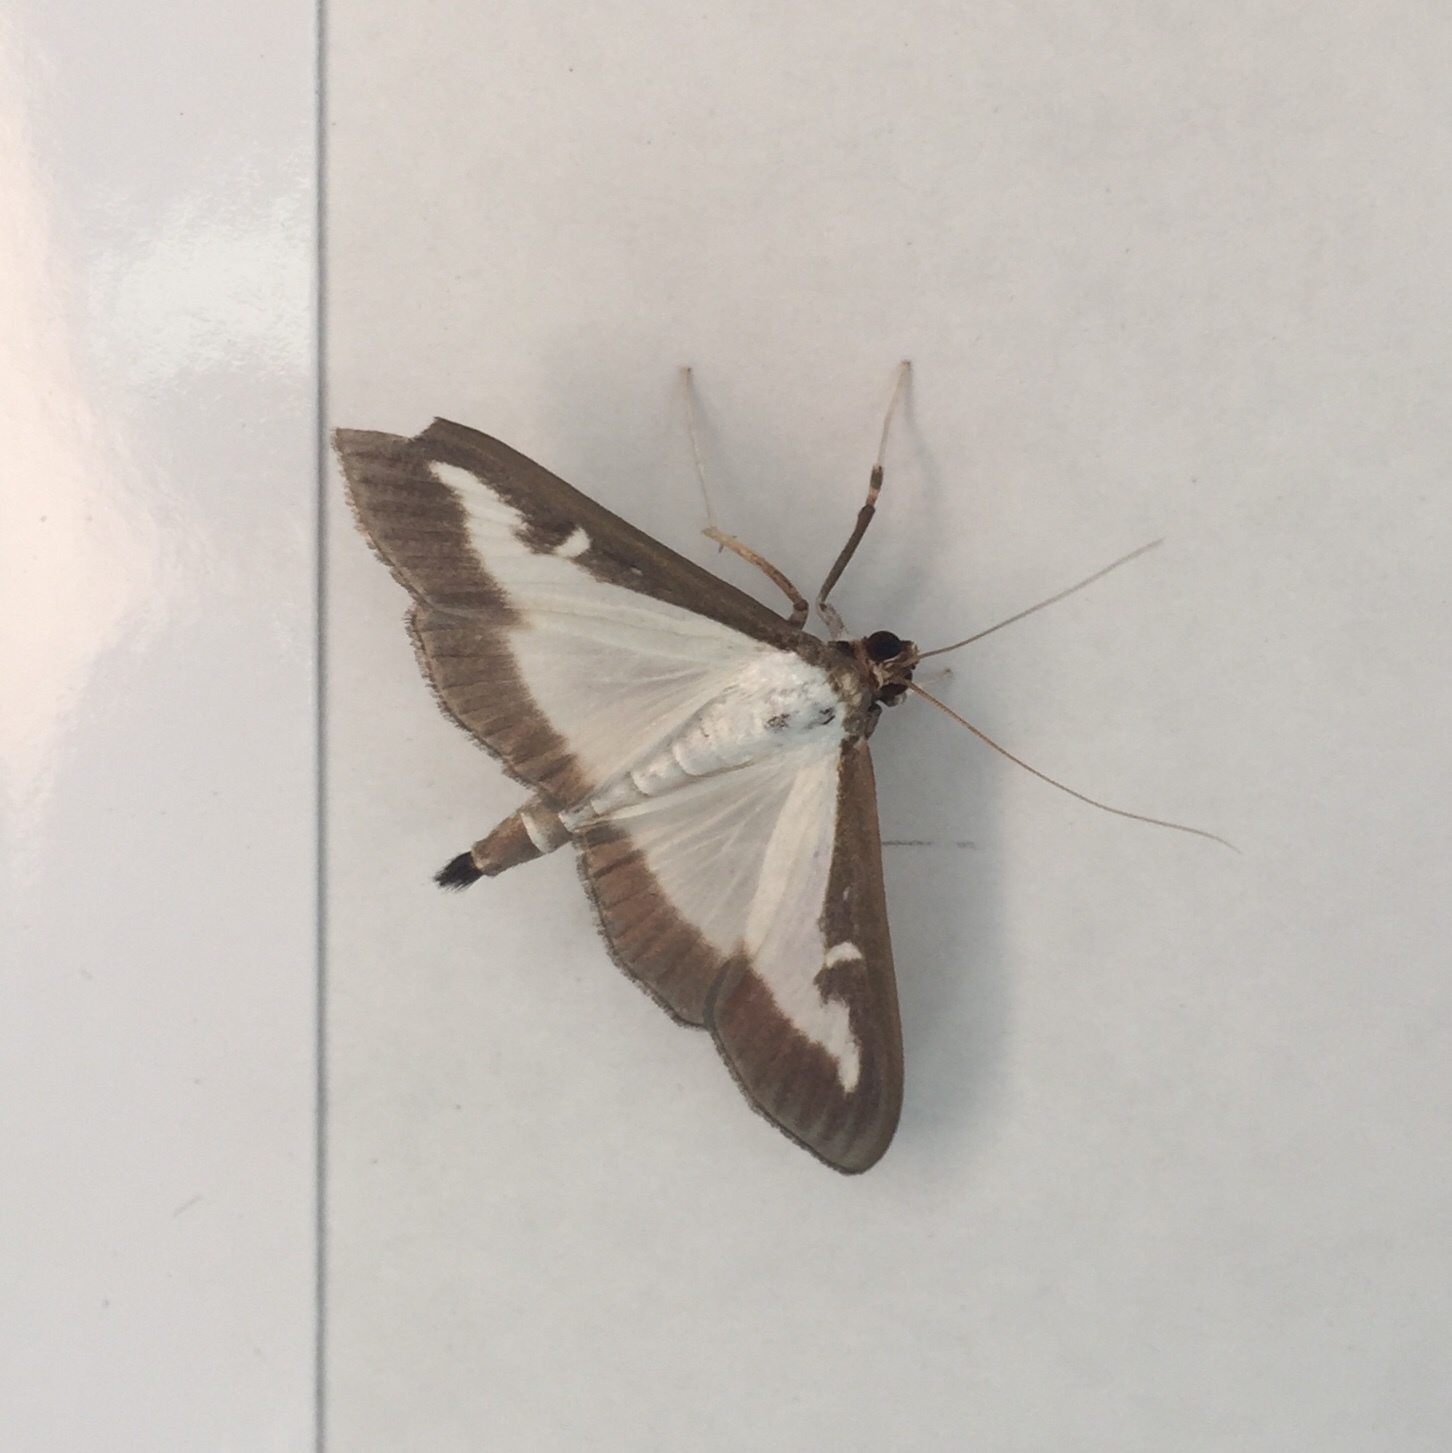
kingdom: Animalia
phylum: Arthropoda
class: Insecta
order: Lepidoptera
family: Crambidae
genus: Cydalima
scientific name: Cydalima perspectalis
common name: Box tree moth
